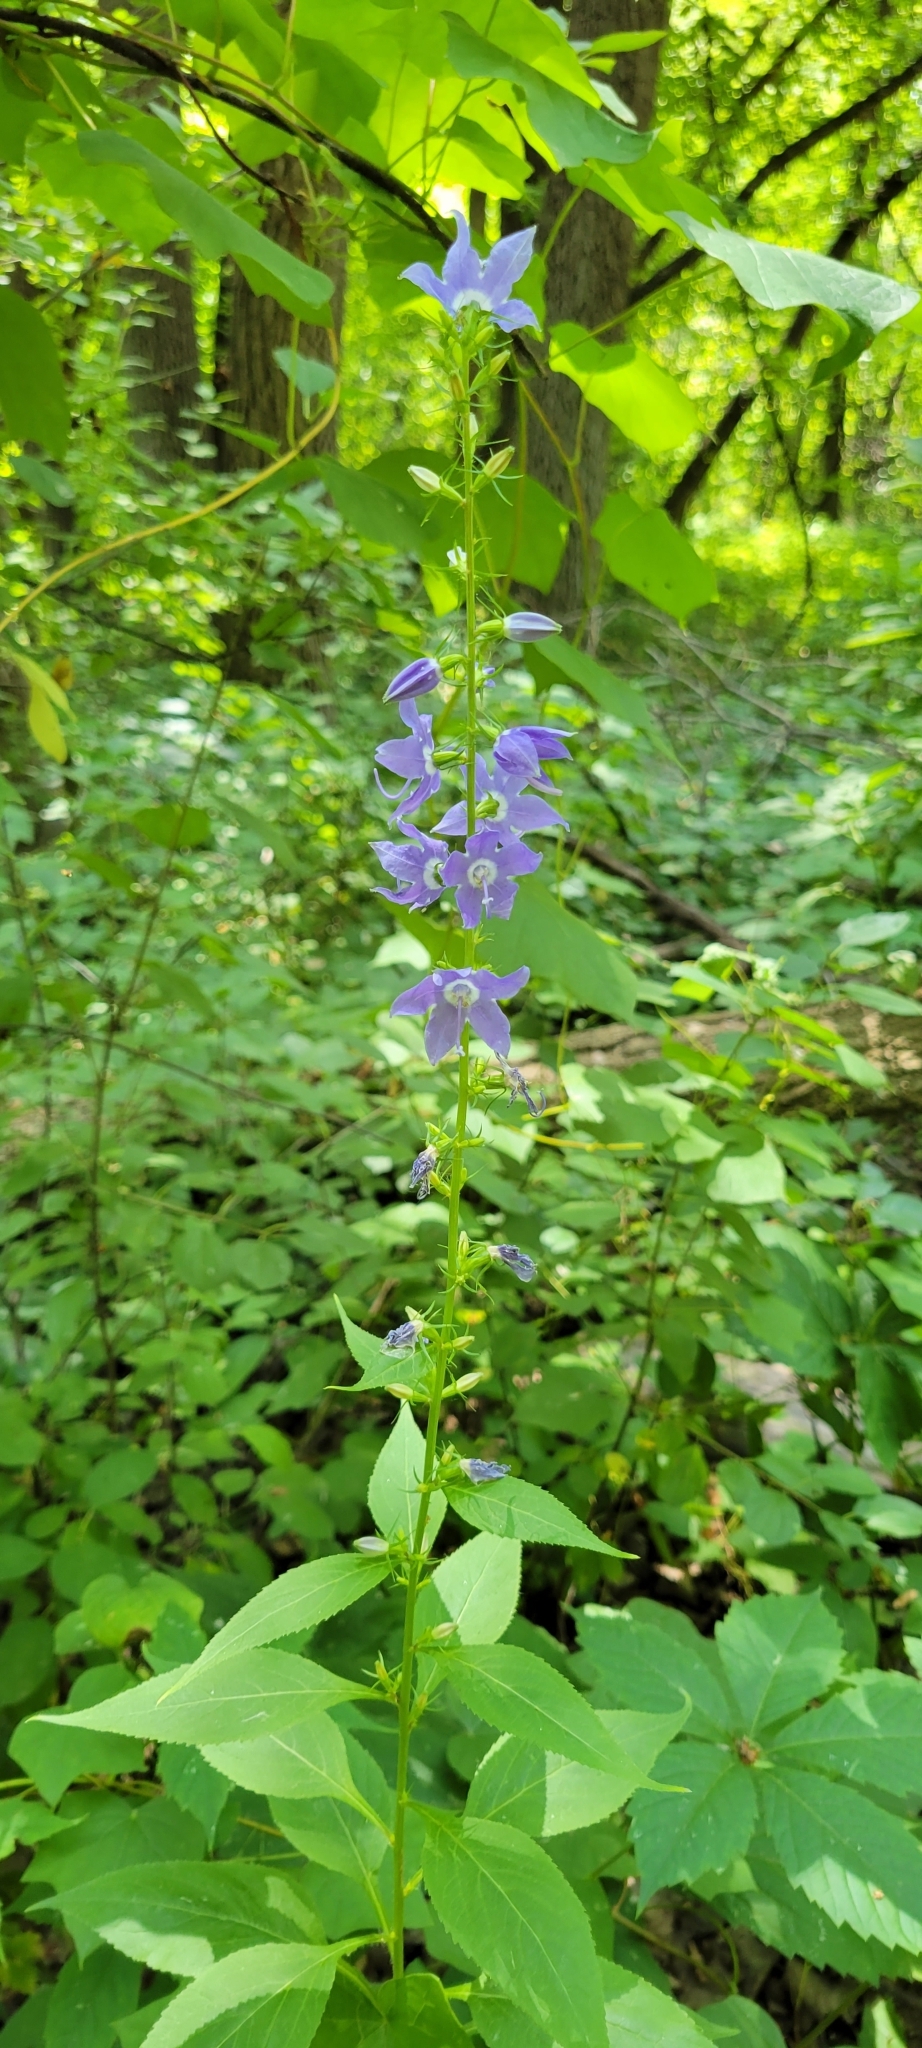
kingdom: Plantae
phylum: Tracheophyta
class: Magnoliopsida
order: Asterales
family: Campanulaceae
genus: Campanulastrum
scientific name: Campanulastrum americanum
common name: American bellflower
